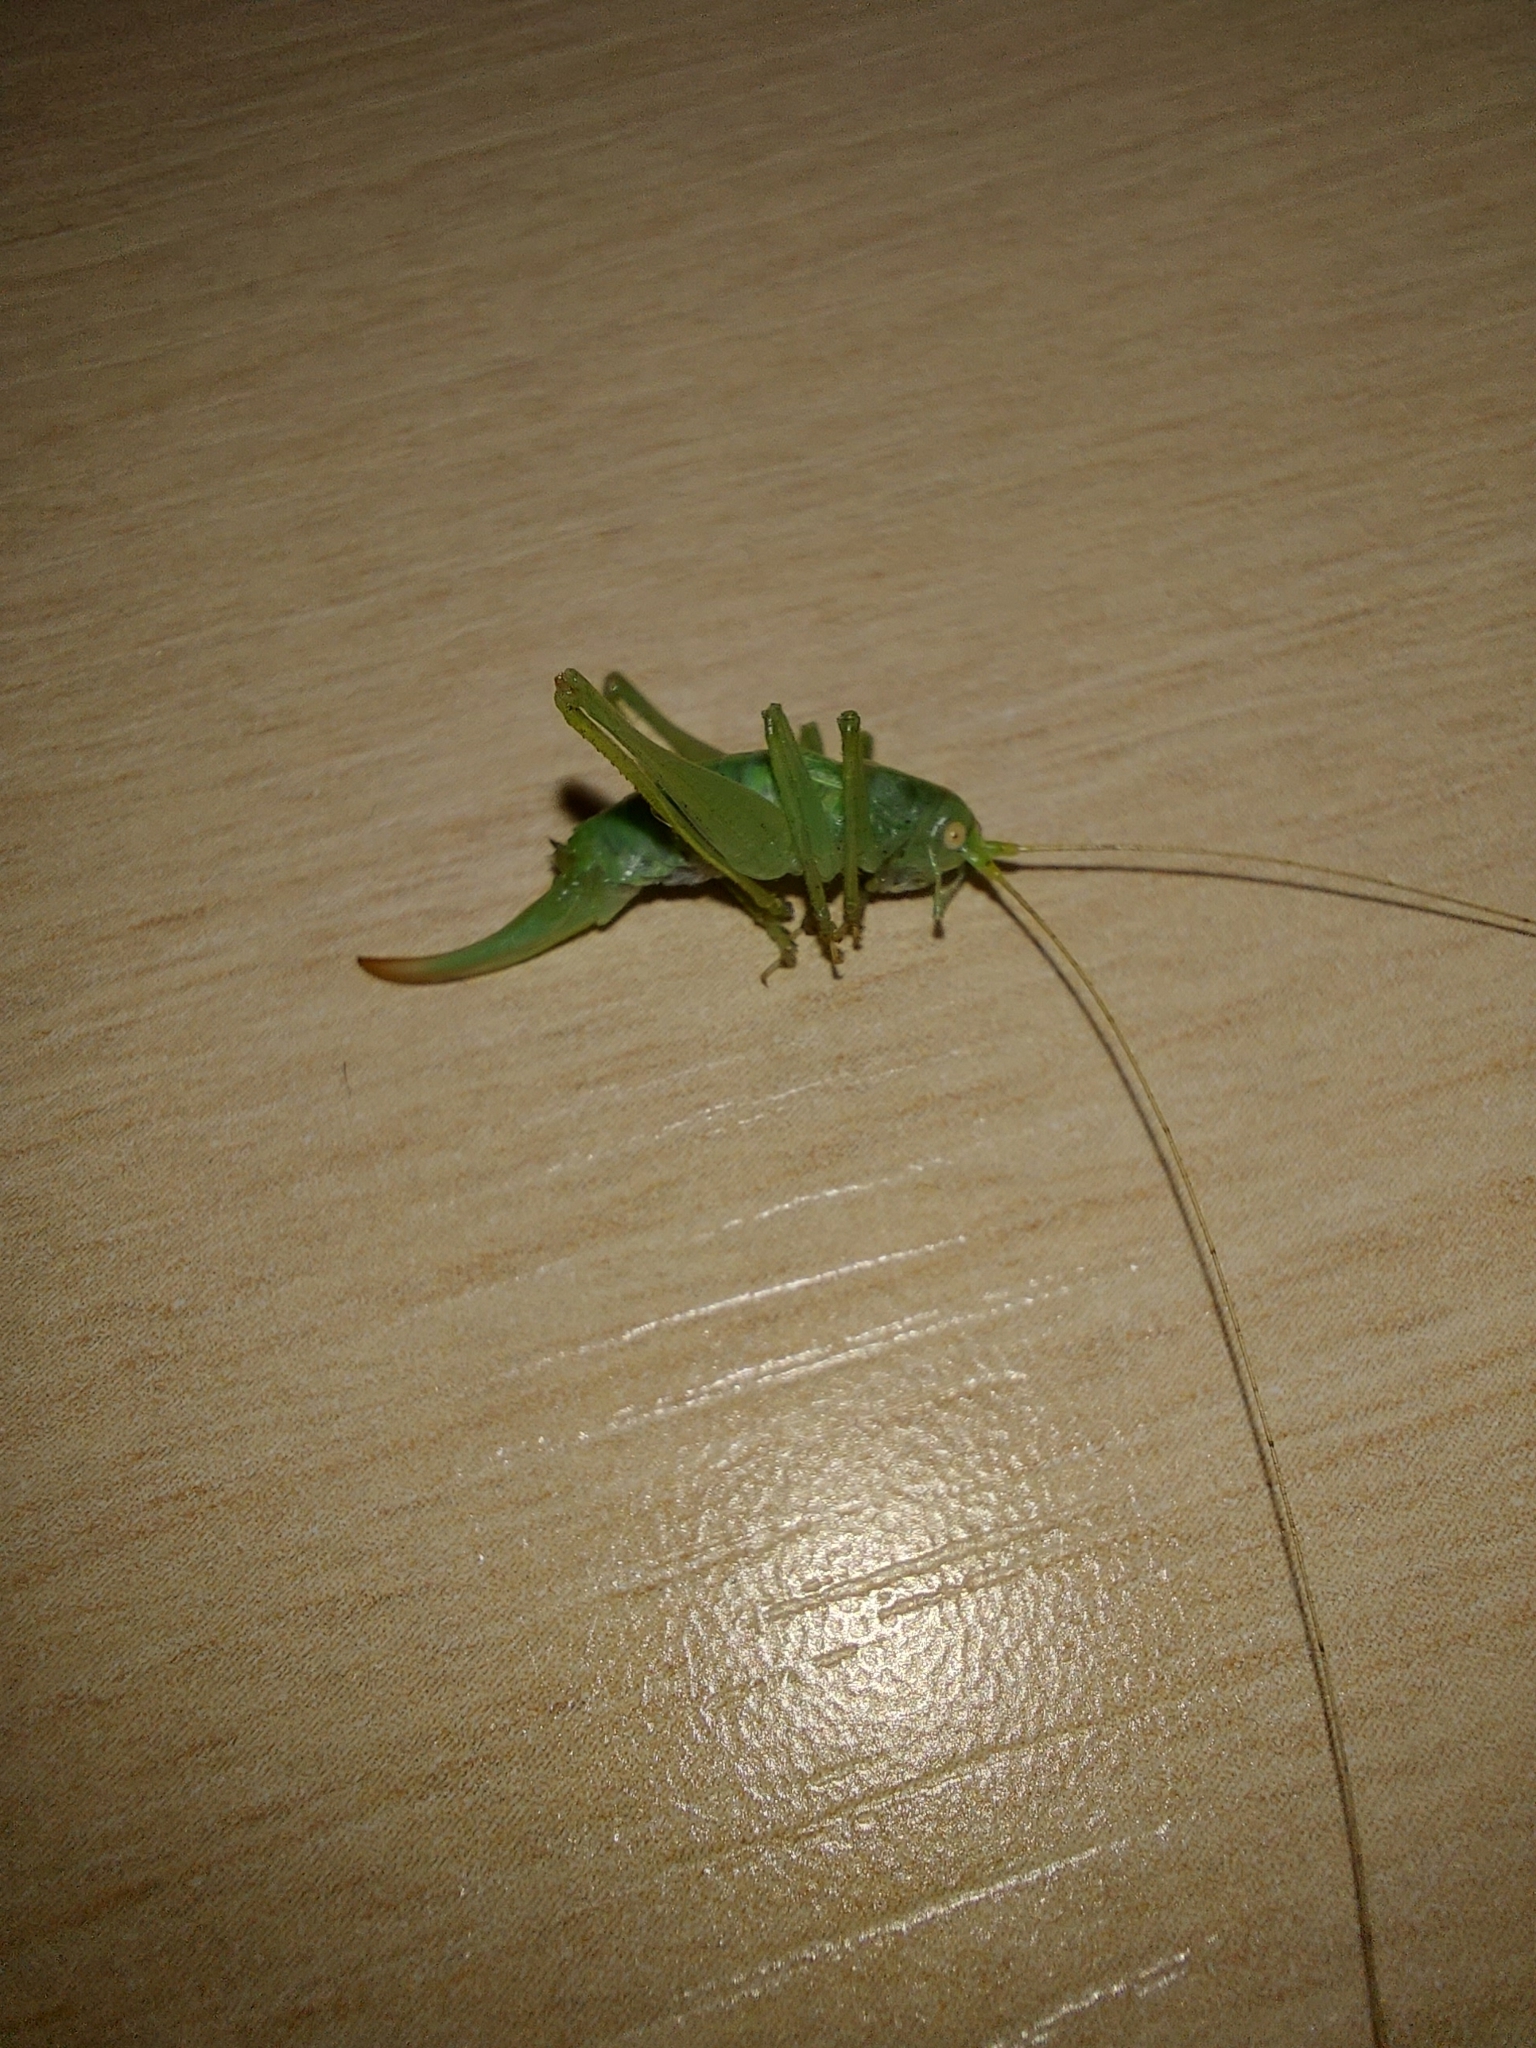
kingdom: Animalia
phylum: Arthropoda
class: Insecta
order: Orthoptera
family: Tettigoniidae
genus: Meconema
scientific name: Meconema meridionale
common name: Southern oak bush-cricket
